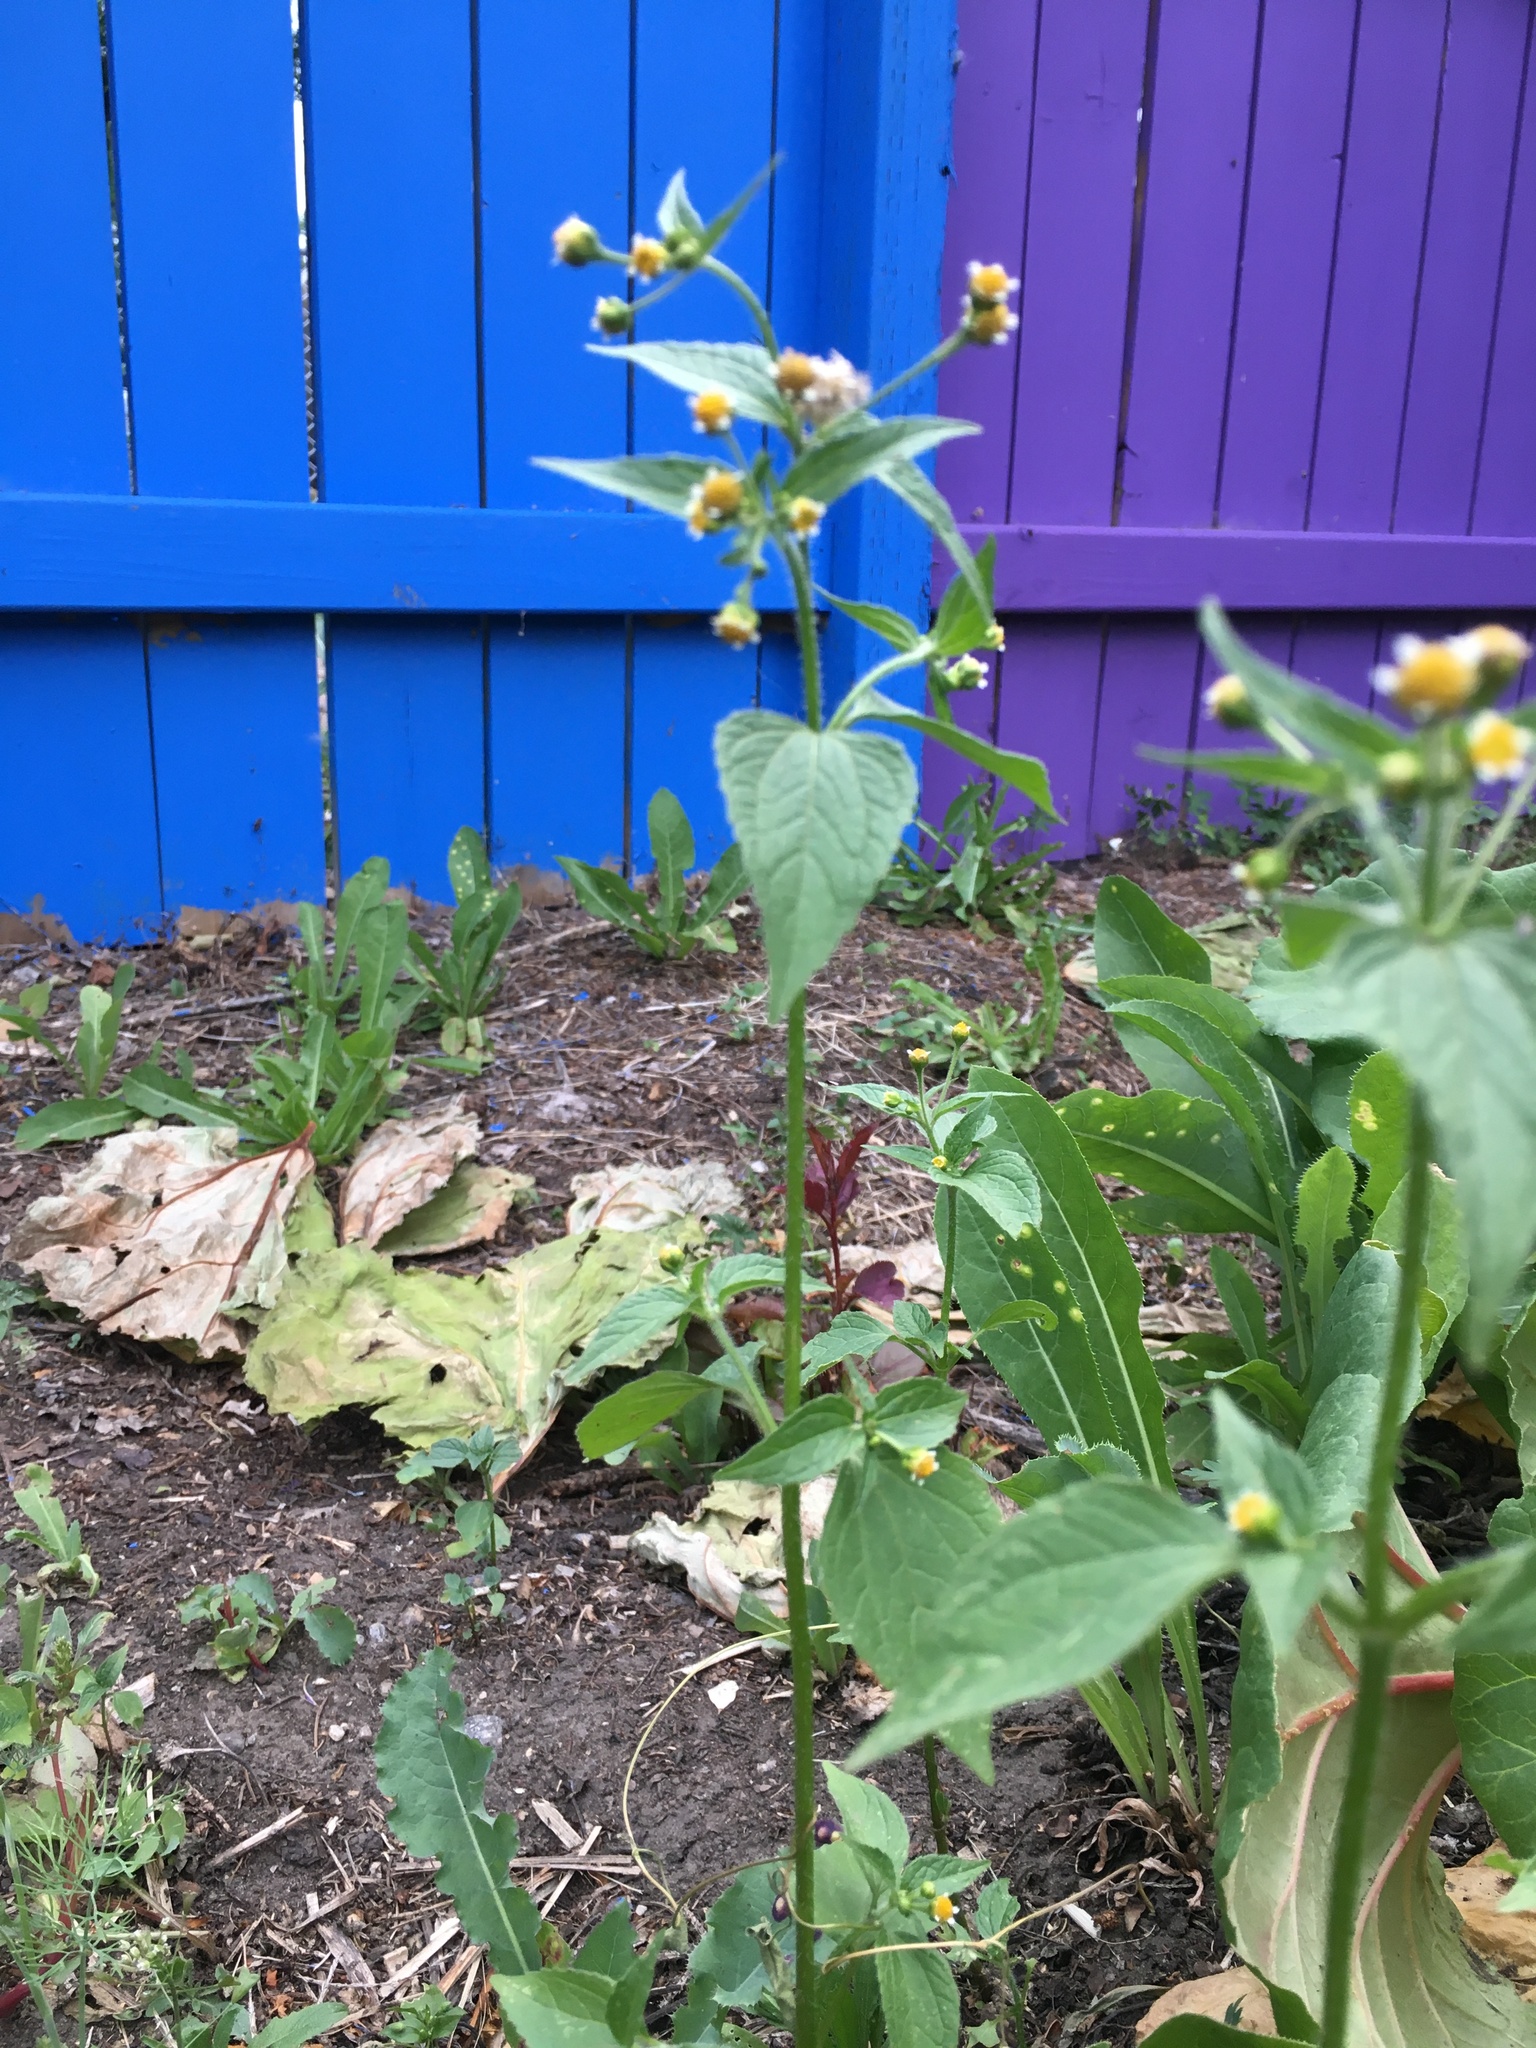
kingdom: Plantae
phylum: Tracheophyta
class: Magnoliopsida
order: Asterales
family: Asteraceae
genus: Galinsoga
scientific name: Galinsoga quadriradiata
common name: Shaggy soldier
